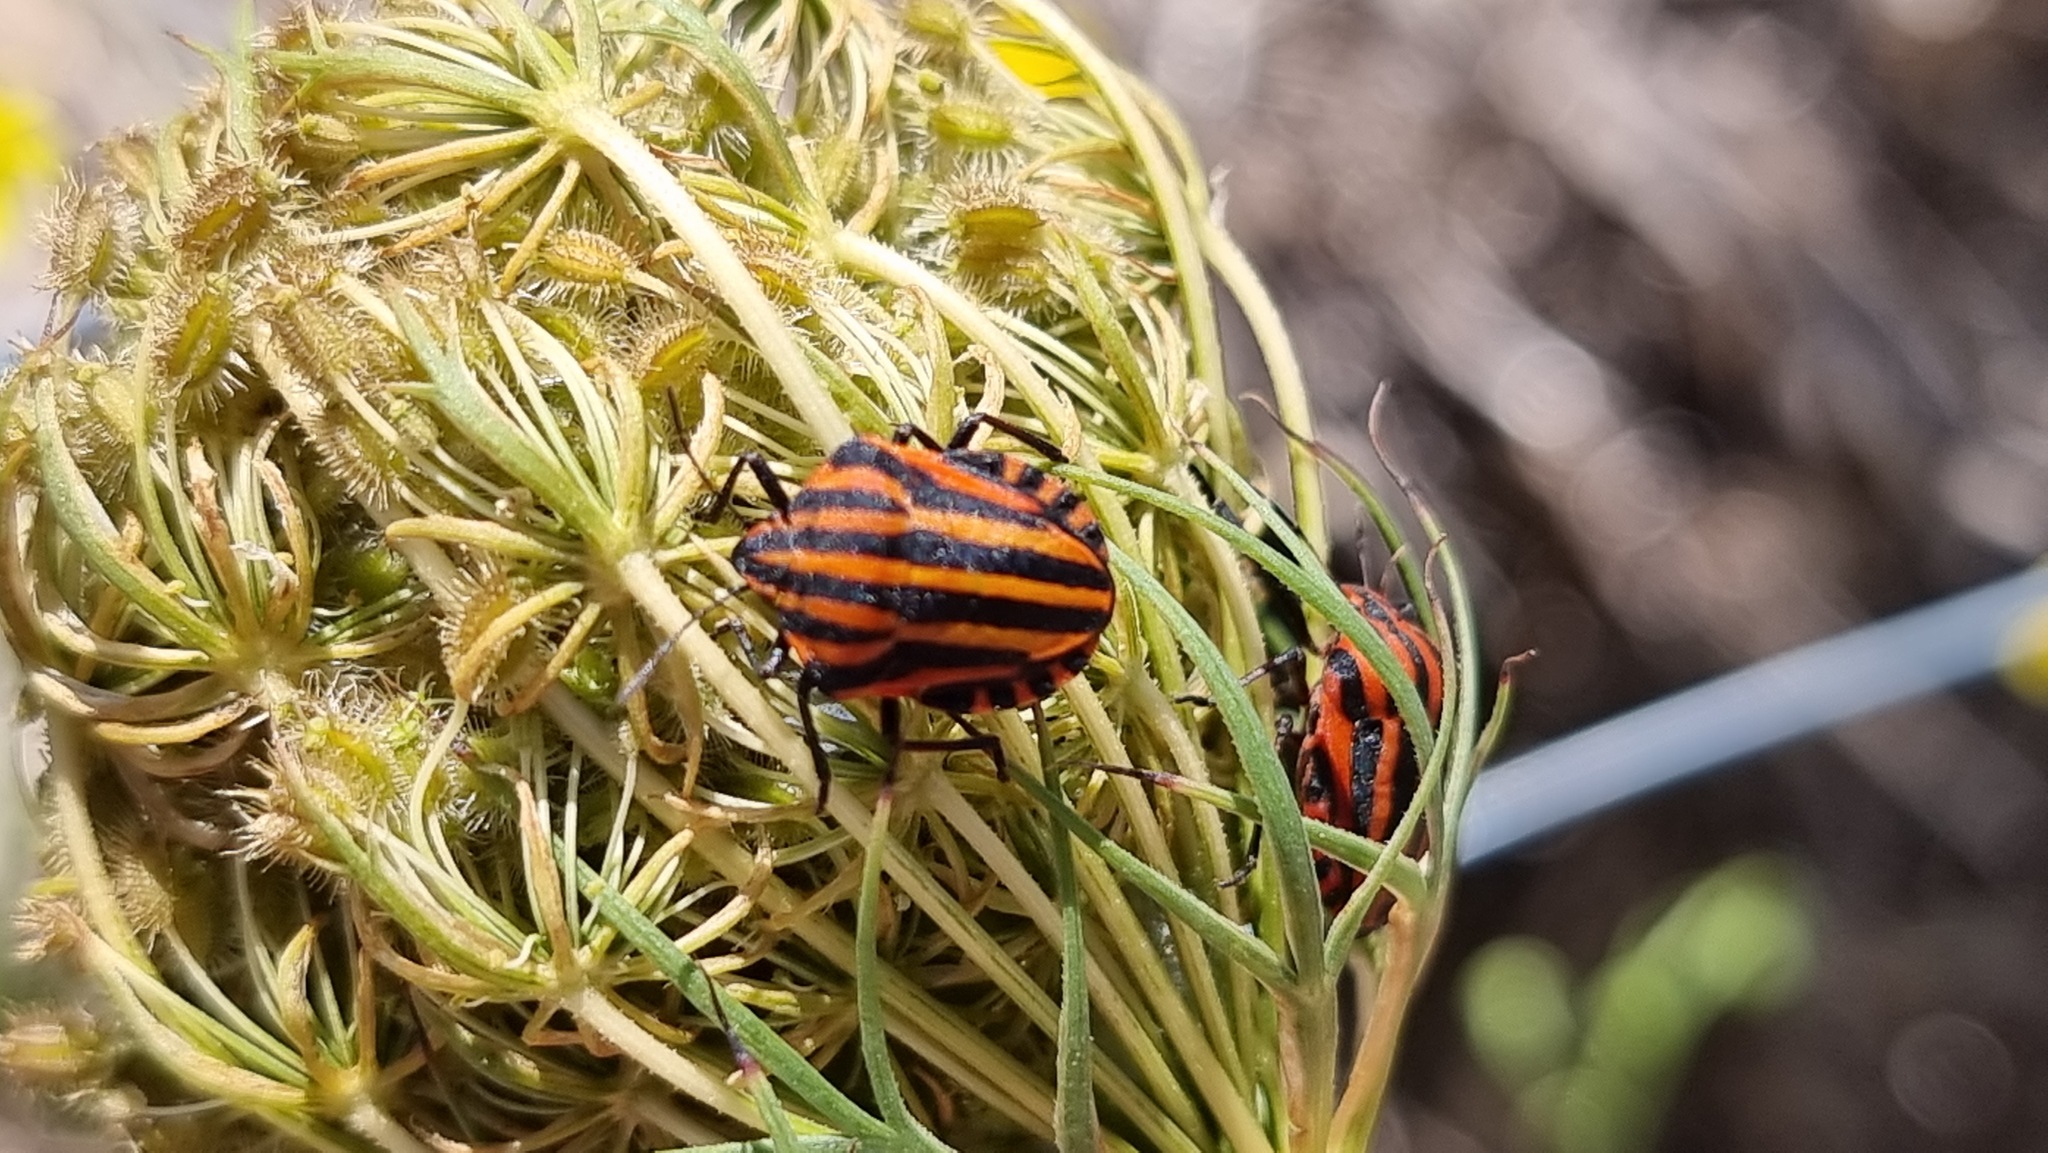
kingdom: Animalia
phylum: Arthropoda
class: Insecta
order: Hemiptera
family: Pentatomidae
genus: Graphosoma
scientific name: Graphosoma italicum
